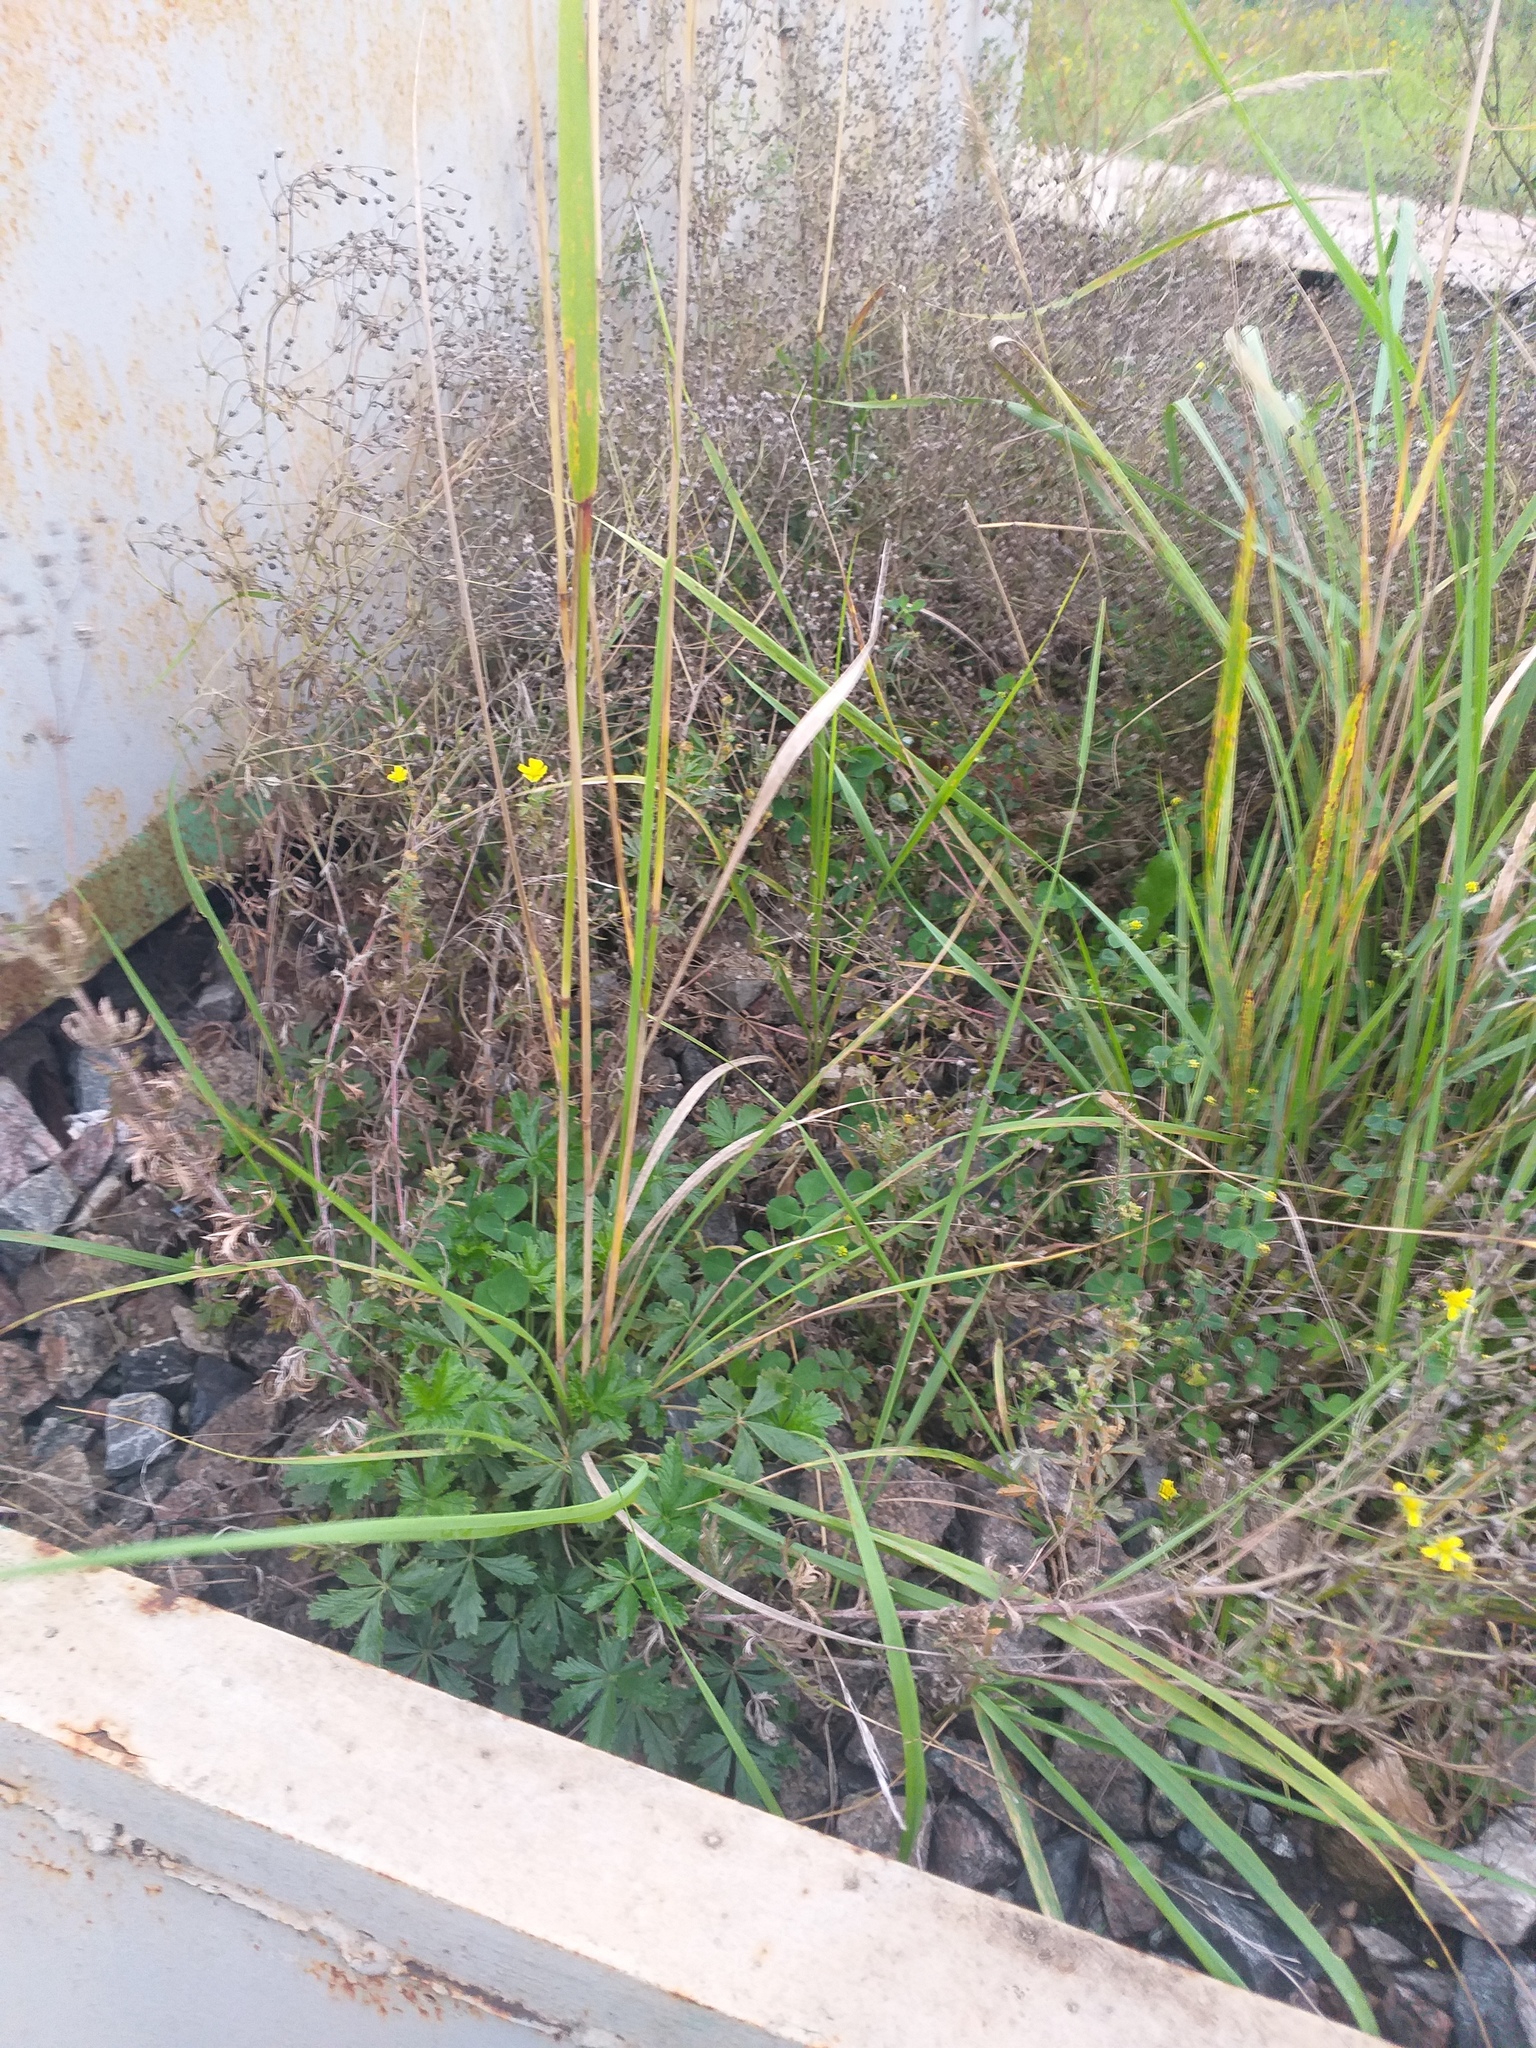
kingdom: Plantae
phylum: Tracheophyta
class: Magnoliopsida
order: Rosales
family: Rosaceae
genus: Potentilla
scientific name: Potentilla argentea
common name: Hoary cinquefoil
